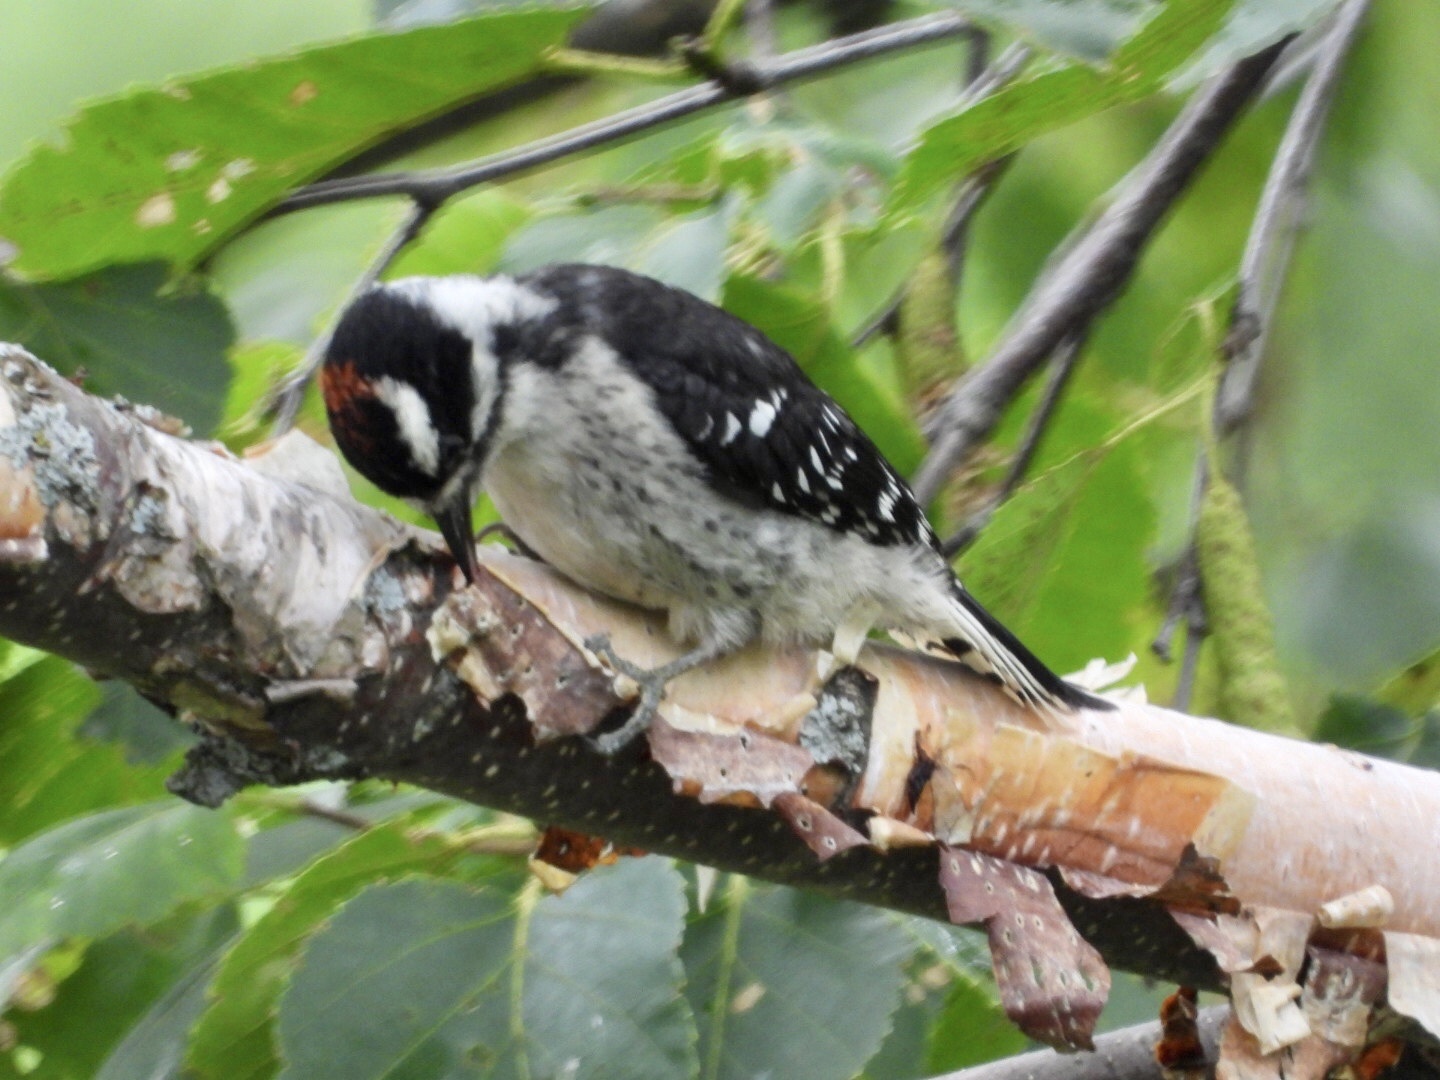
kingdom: Animalia
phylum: Chordata
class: Aves
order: Piciformes
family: Picidae
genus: Leuconotopicus
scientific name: Leuconotopicus villosus
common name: Hairy woodpecker
